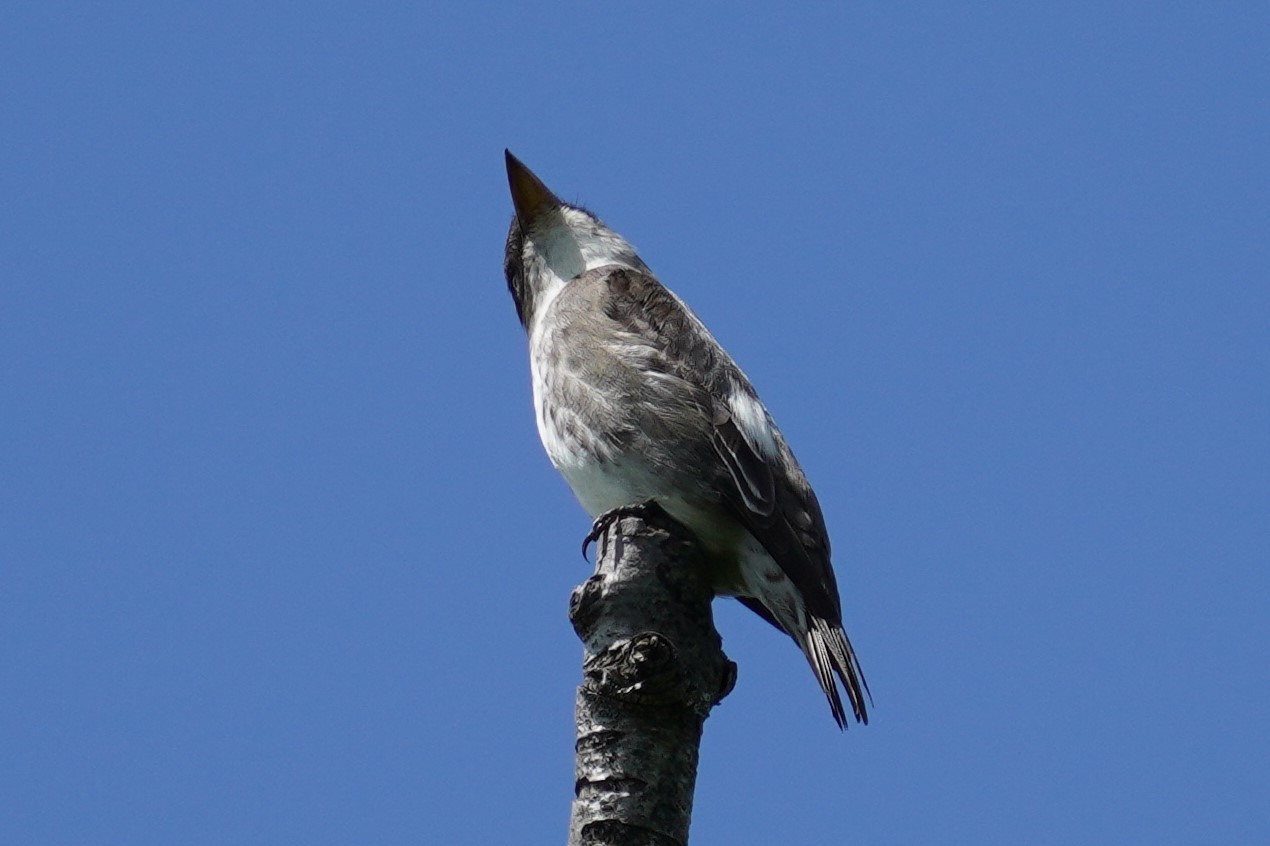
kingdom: Animalia
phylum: Chordata
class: Aves
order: Passeriformes
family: Tyrannidae
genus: Contopus
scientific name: Contopus cooperi
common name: Olive-sided flycatcher
